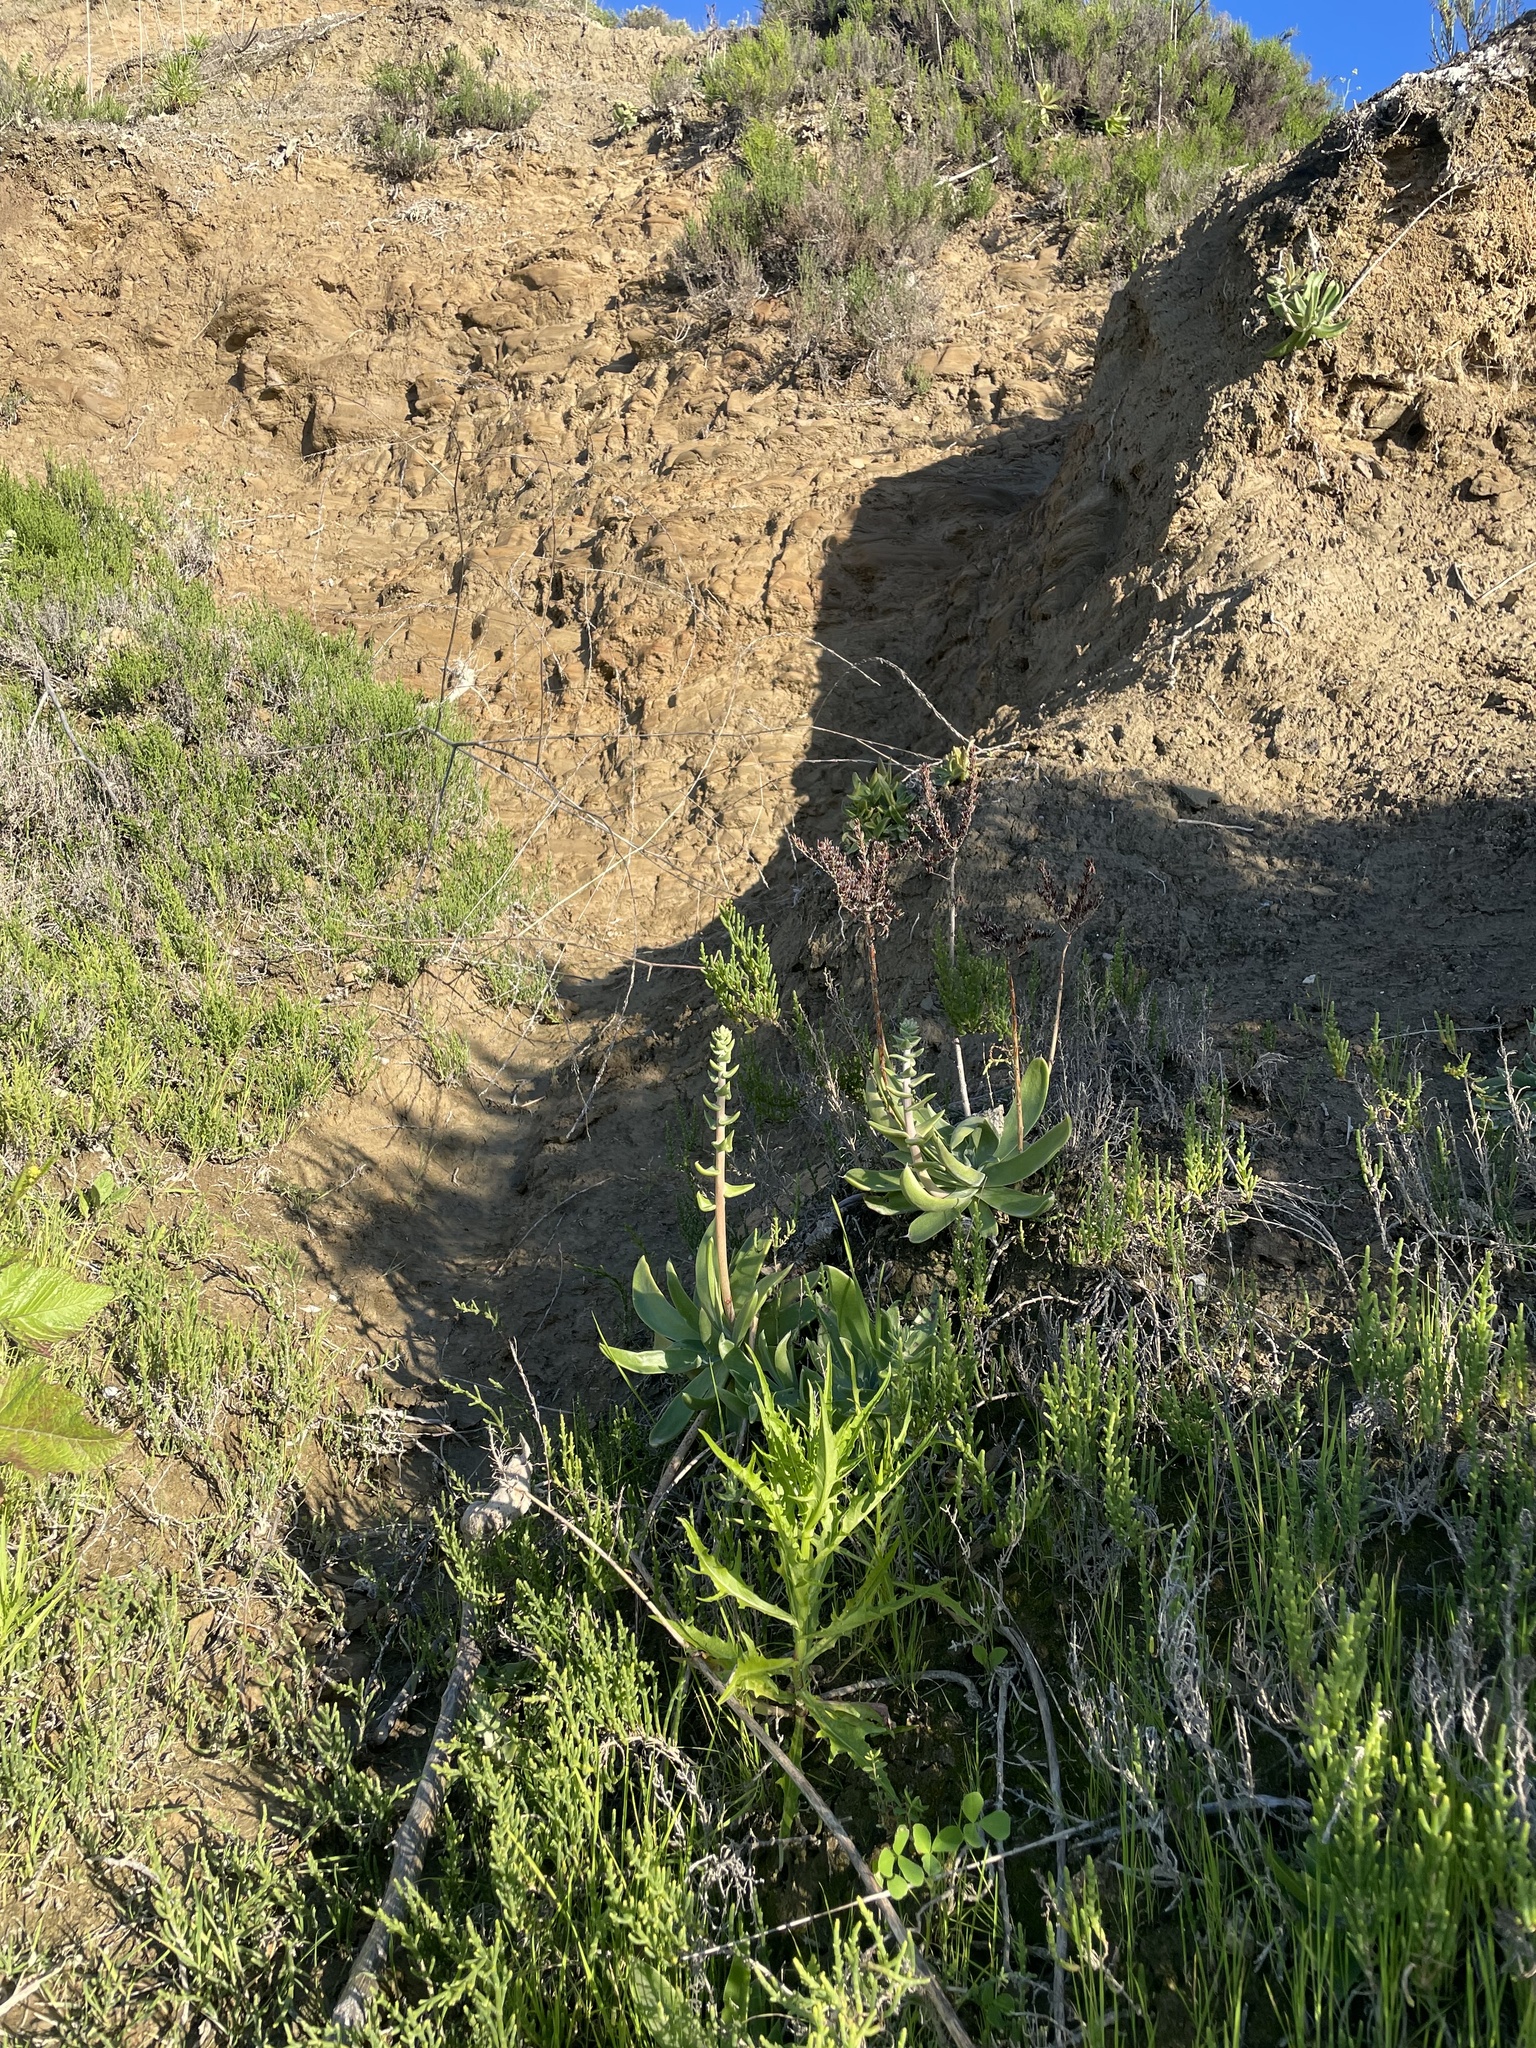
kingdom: Plantae
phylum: Tracheophyta
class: Magnoliopsida
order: Saxifragales
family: Crassulaceae
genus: Dudleya
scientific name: Dudleya lanceolata
